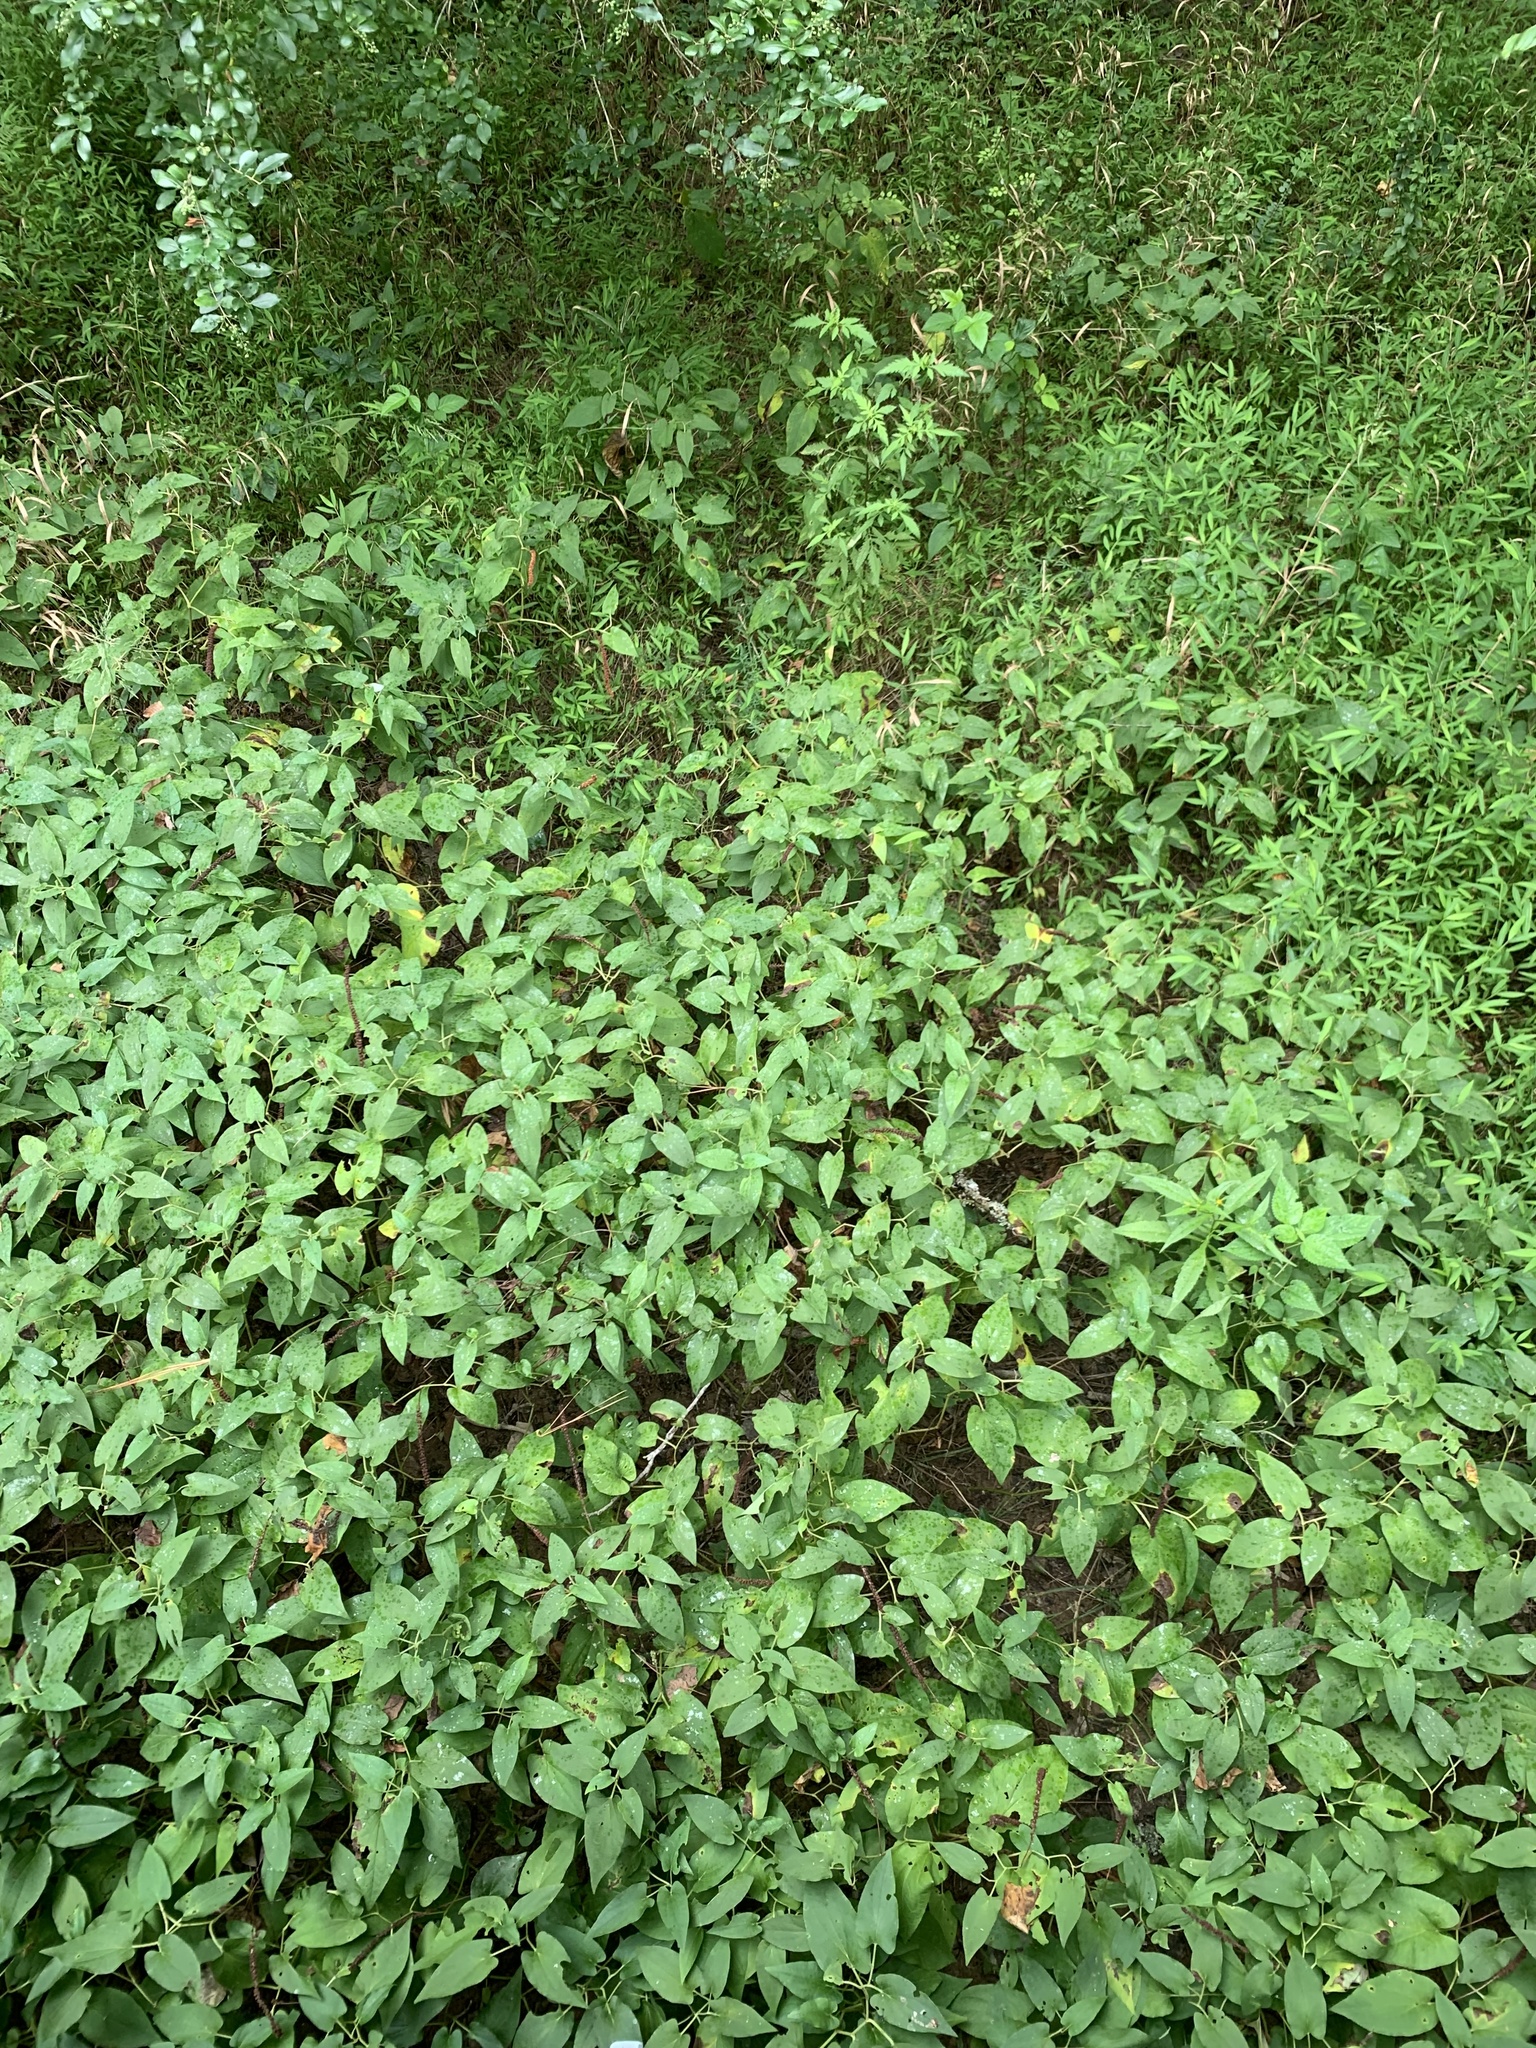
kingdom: Plantae
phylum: Tracheophyta
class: Magnoliopsida
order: Piperales
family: Saururaceae
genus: Saururus
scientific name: Saururus cernuus
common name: Lizard's-tail
